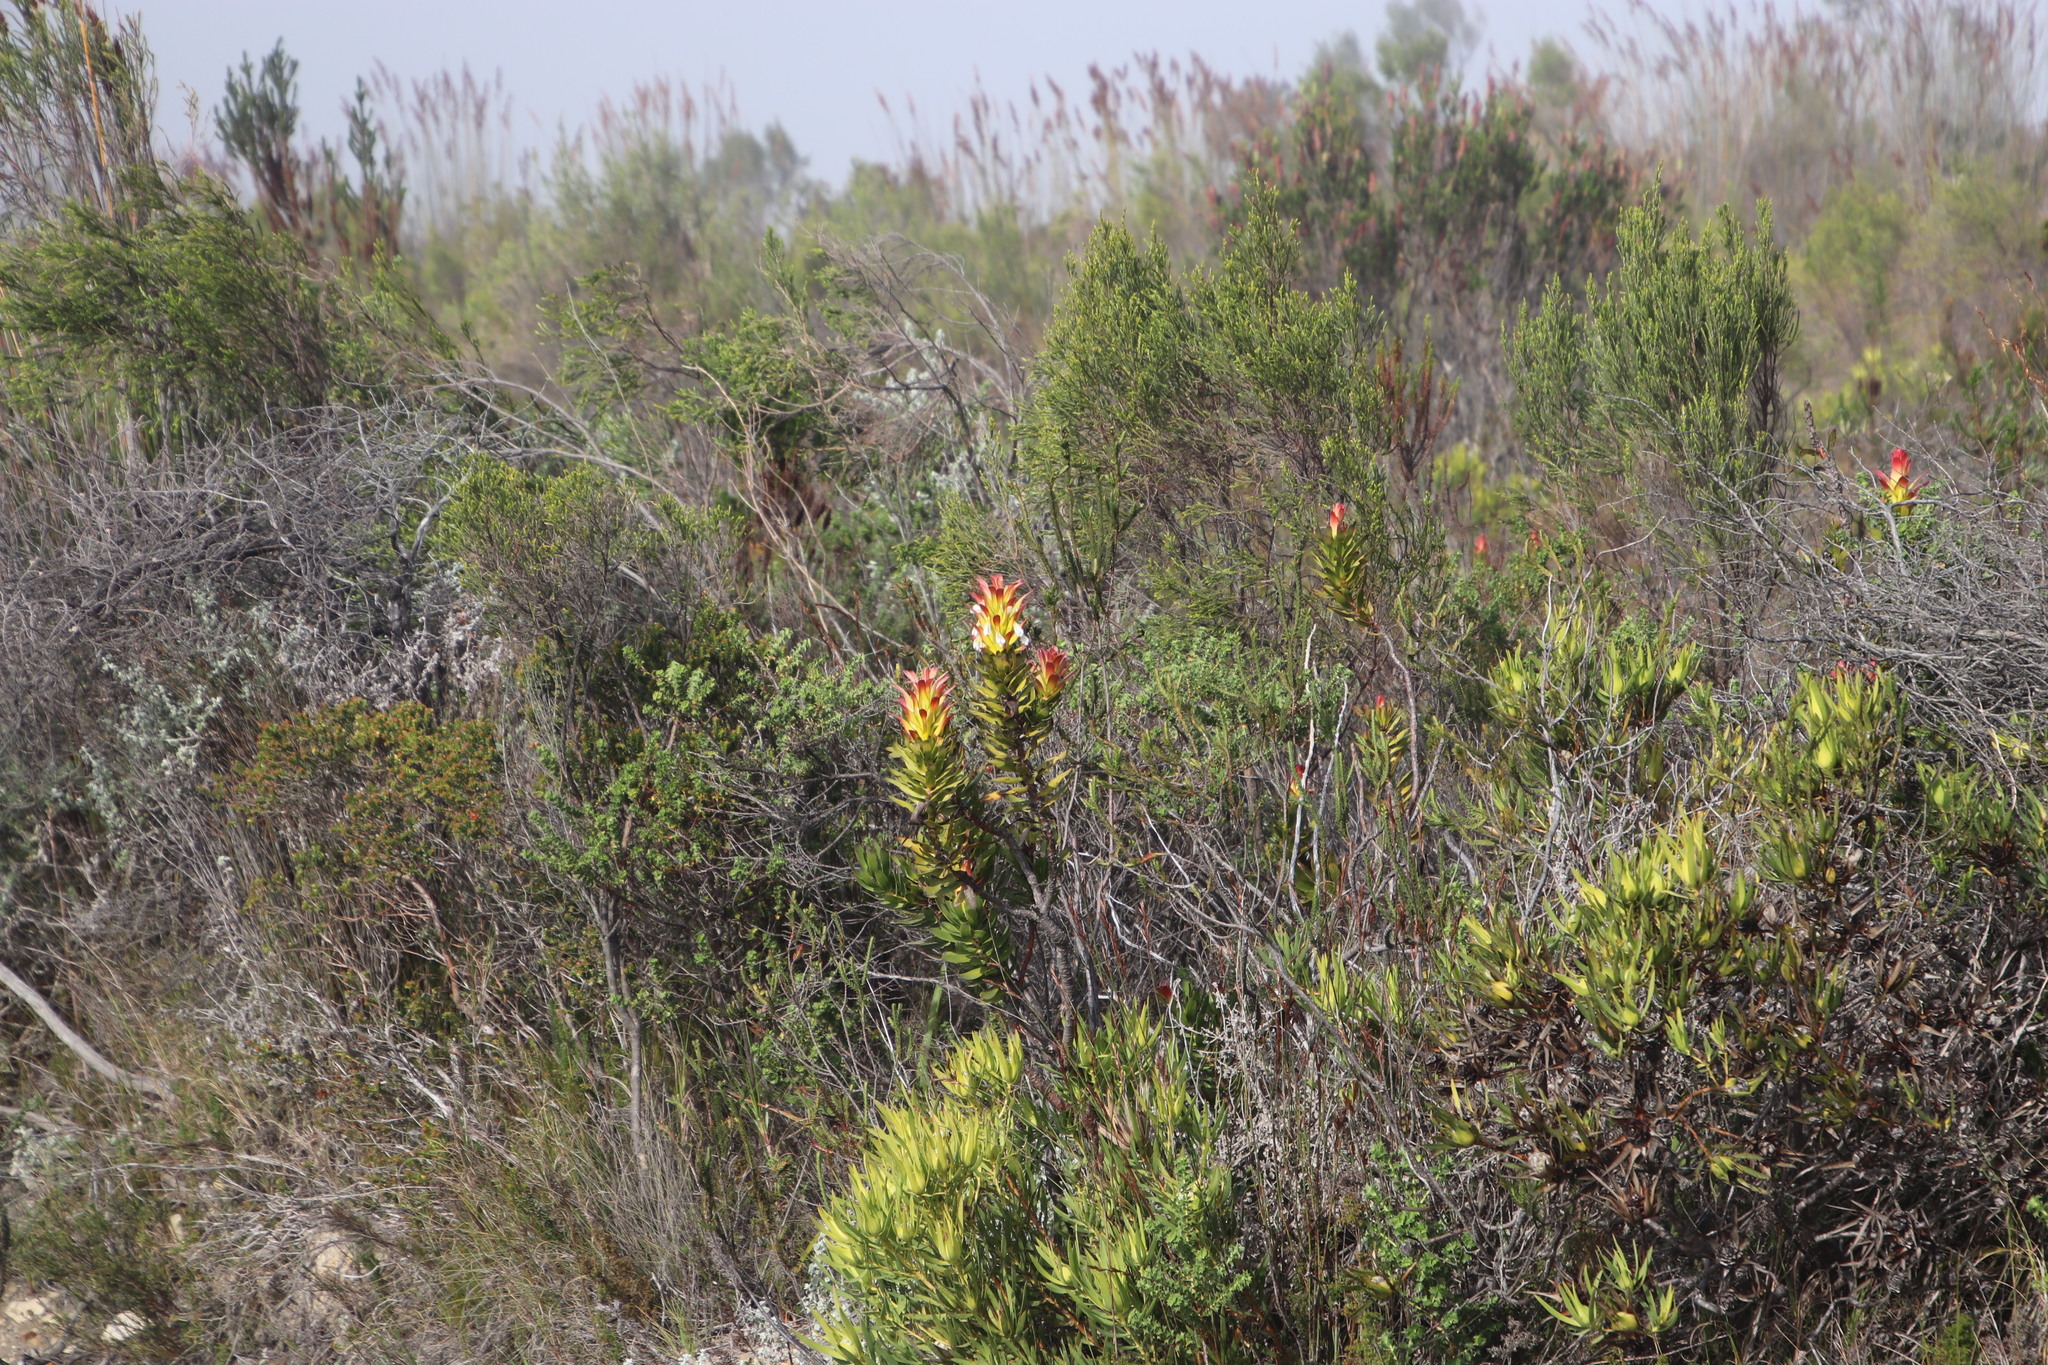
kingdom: Plantae
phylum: Tracheophyta
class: Magnoliopsida
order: Proteales
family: Proteaceae
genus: Mimetes
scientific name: Mimetes cucullatus
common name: Common pagoda
